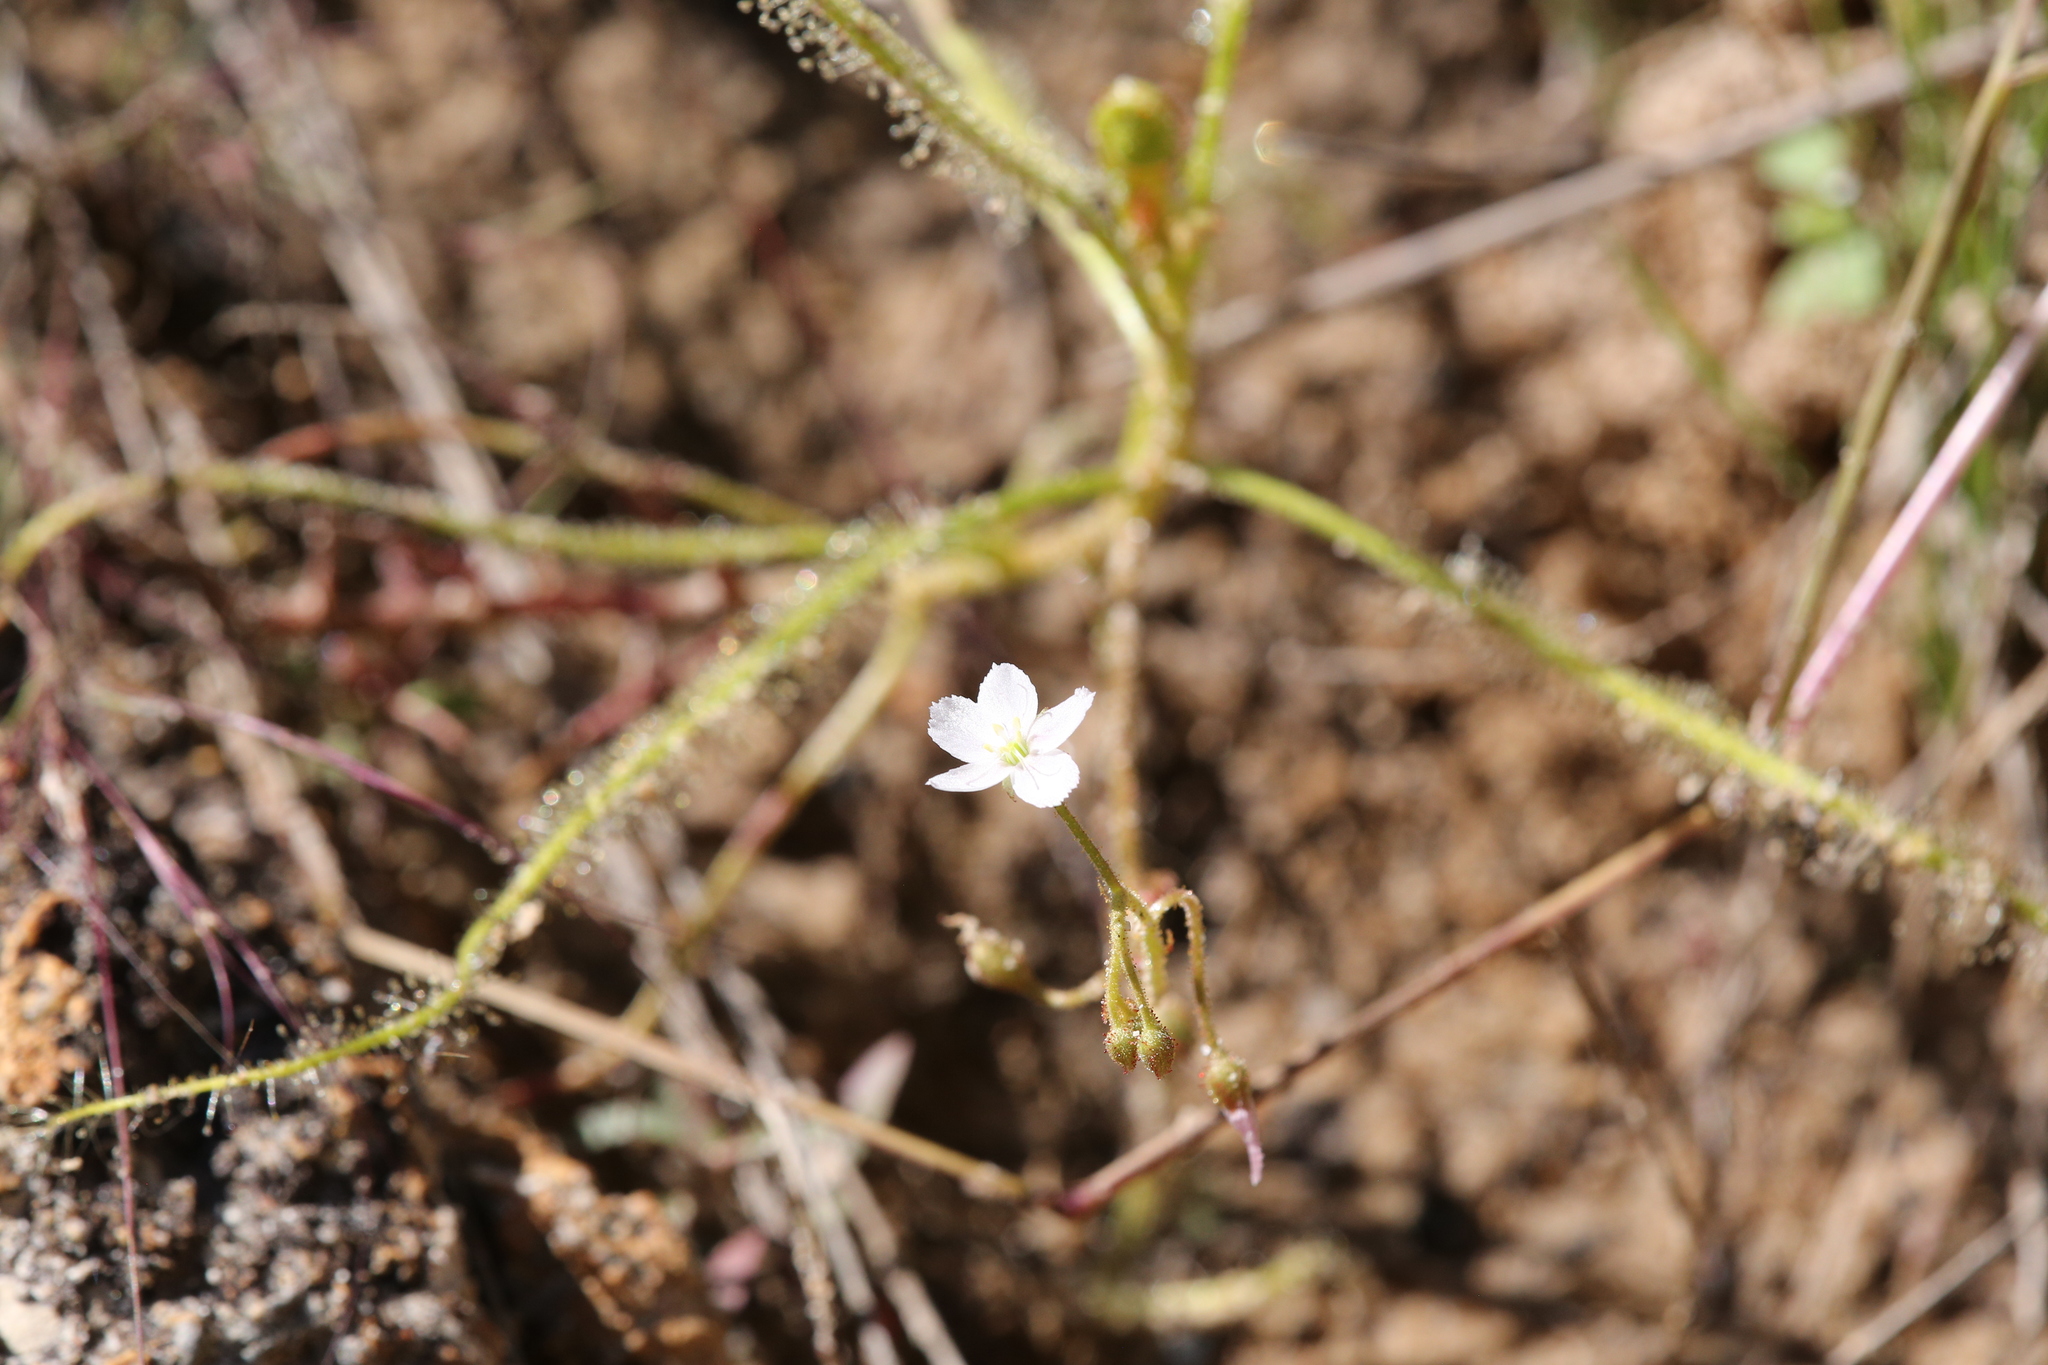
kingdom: Plantae
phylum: Tracheophyta
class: Magnoliopsida
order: Caryophyllales
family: Droseraceae
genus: Drosera
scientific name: Drosera indica
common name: Indian sundew
